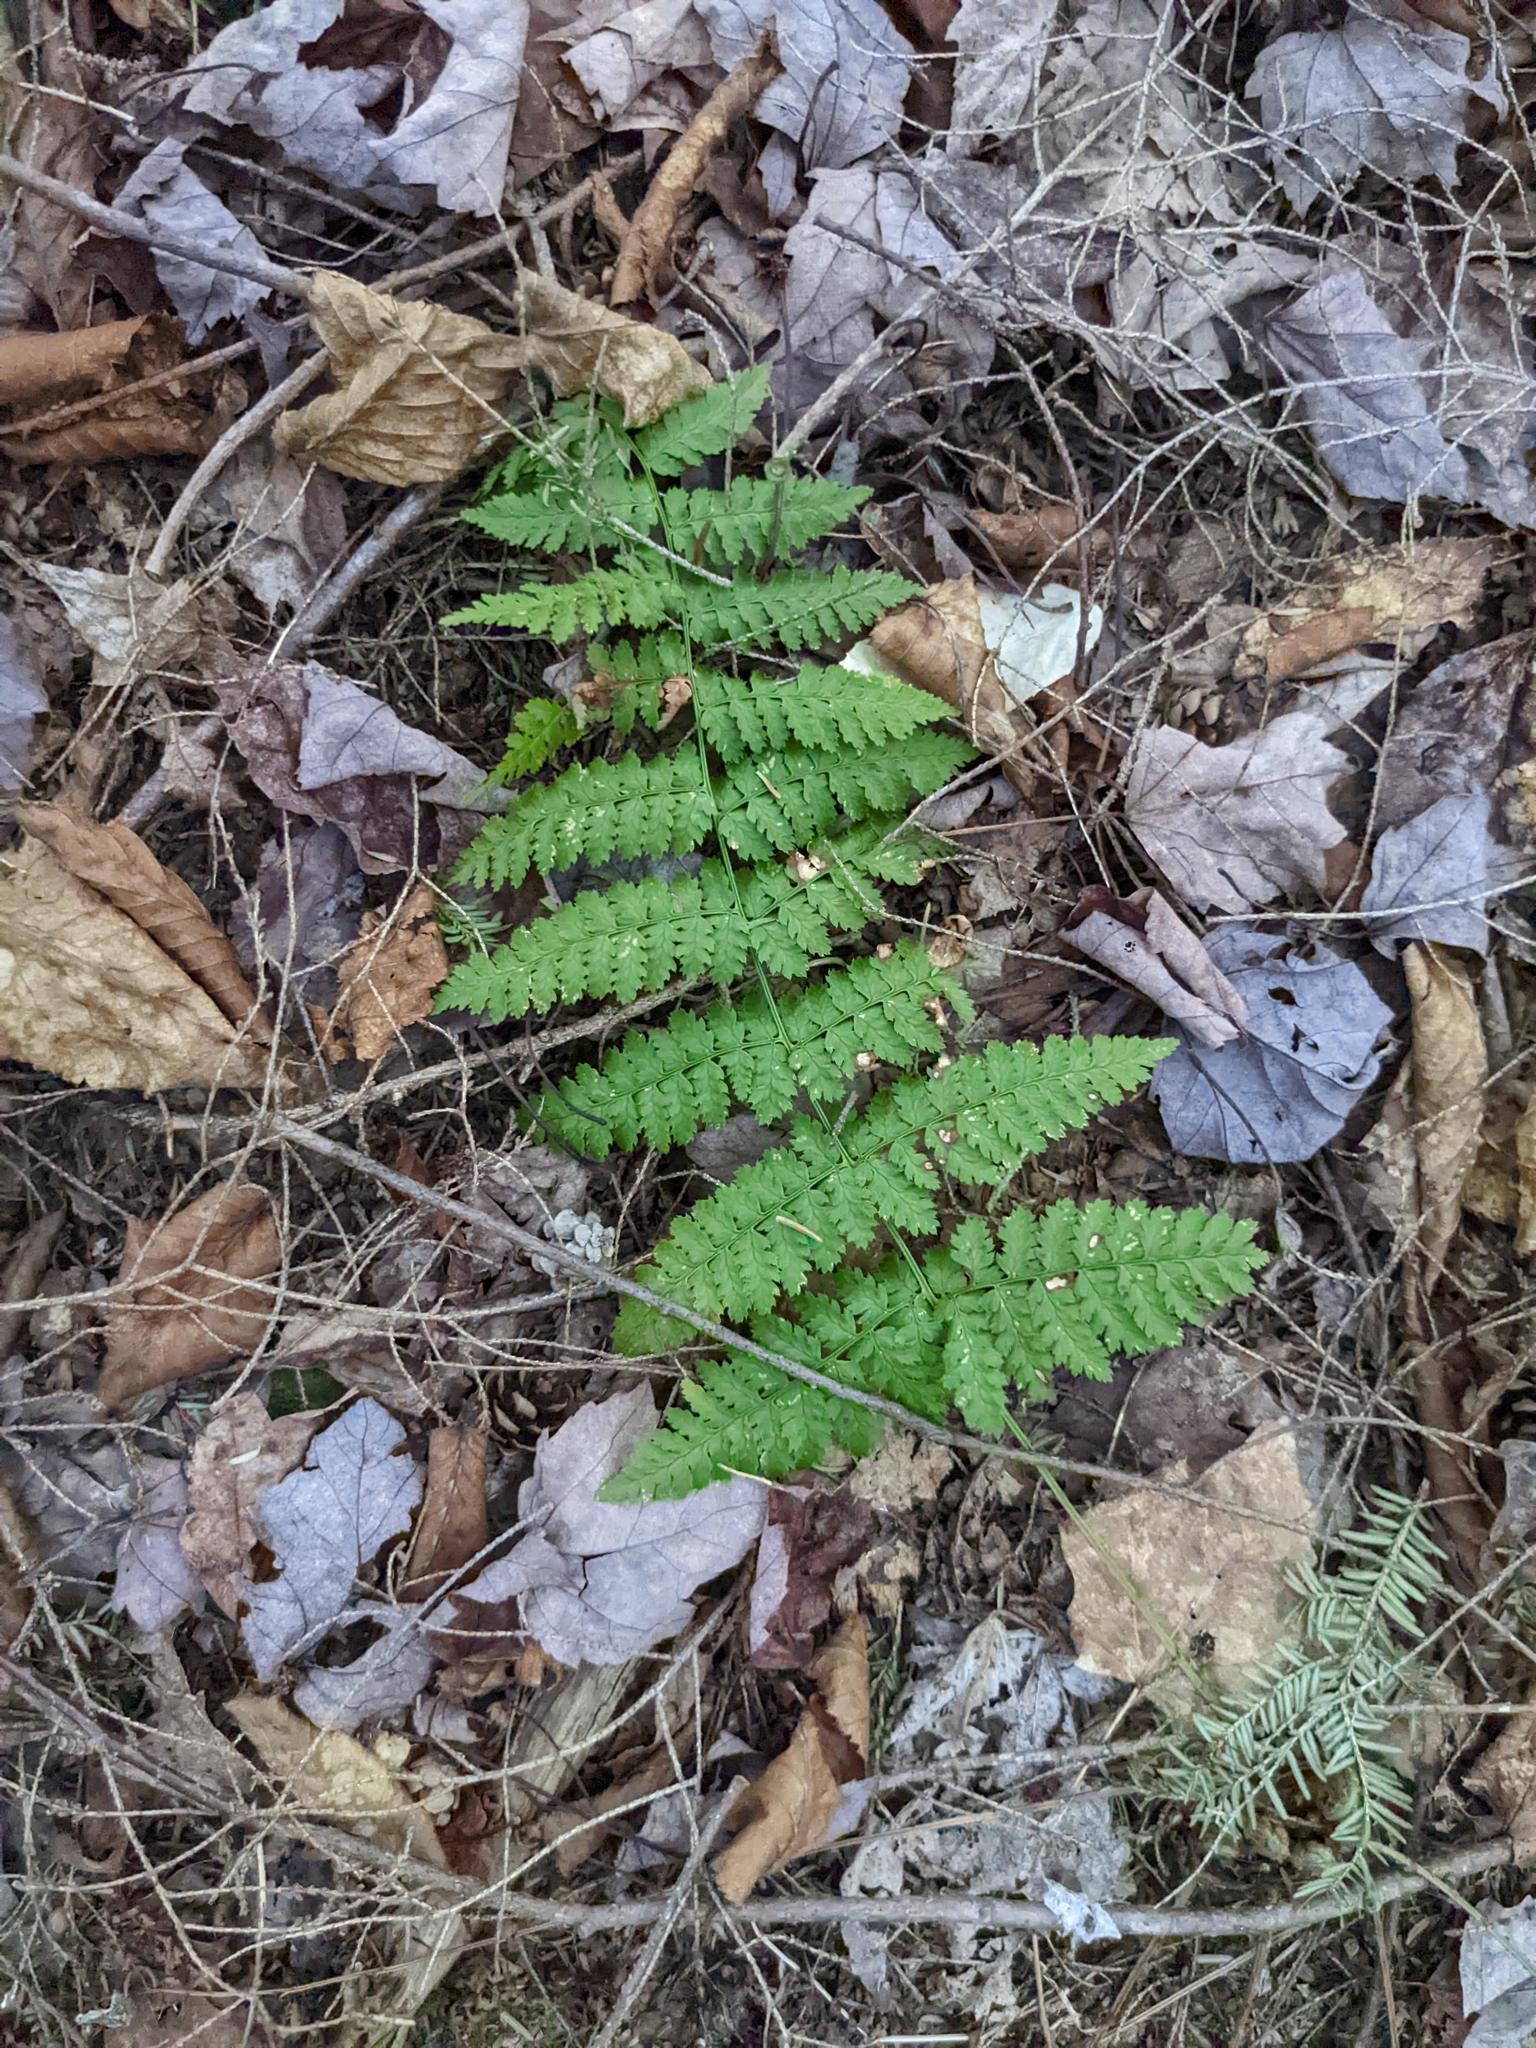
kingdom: Plantae
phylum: Tracheophyta
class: Polypodiopsida
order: Polypodiales
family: Dryopteridaceae
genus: Dryopteris
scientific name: Dryopteris intermedia
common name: Evergreen wood fern
